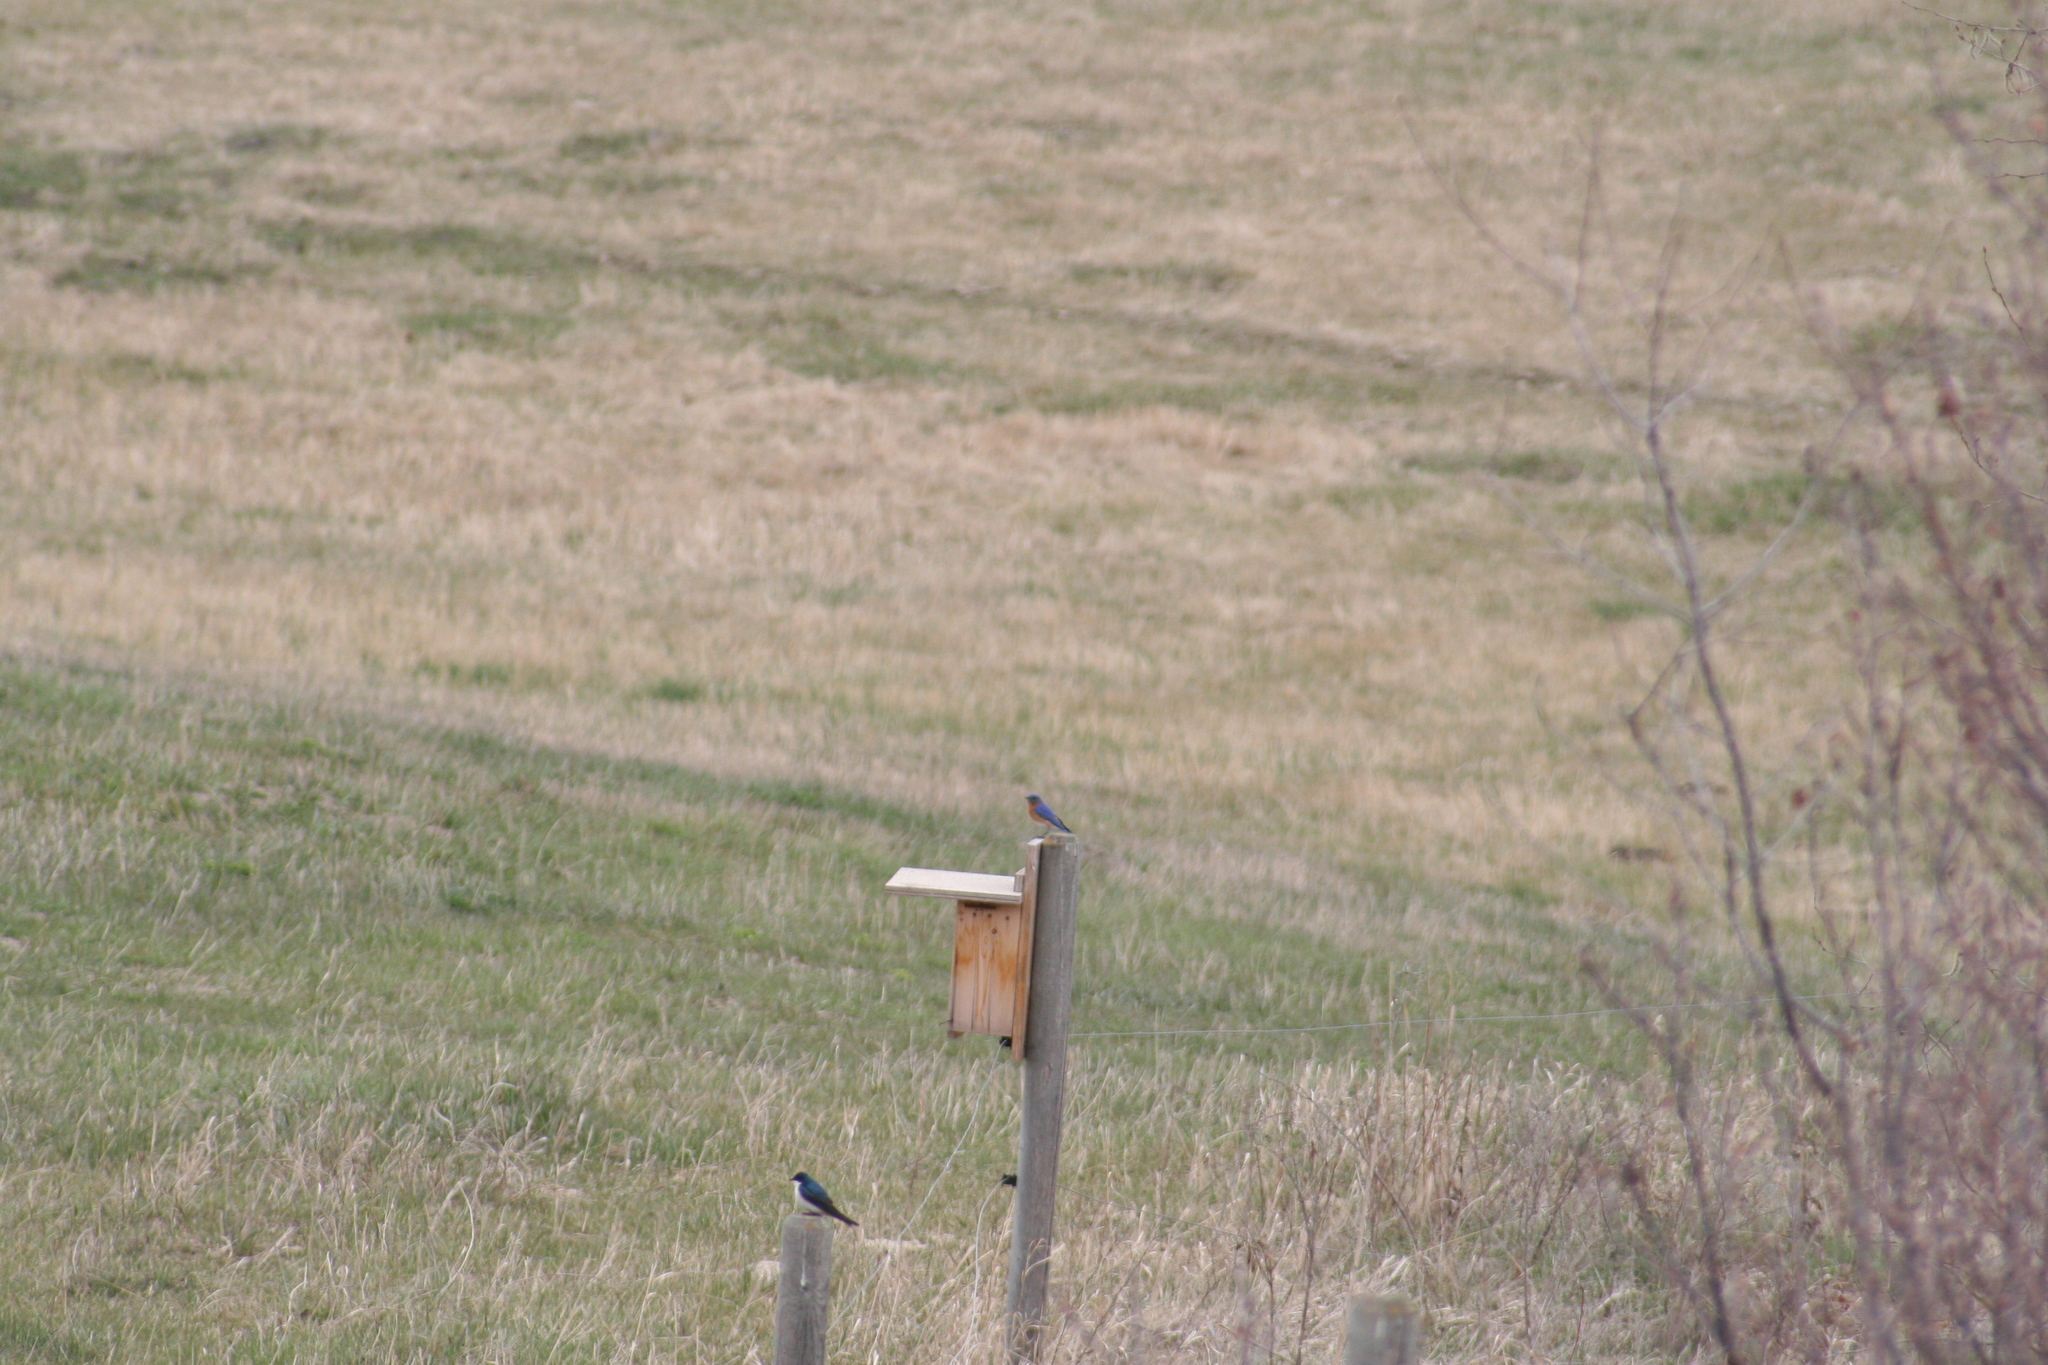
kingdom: Animalia
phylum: Chordata
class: Aves
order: Passeriformes
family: Turdidae
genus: Sialia
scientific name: Sialia sialis
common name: Eastern bluebird
